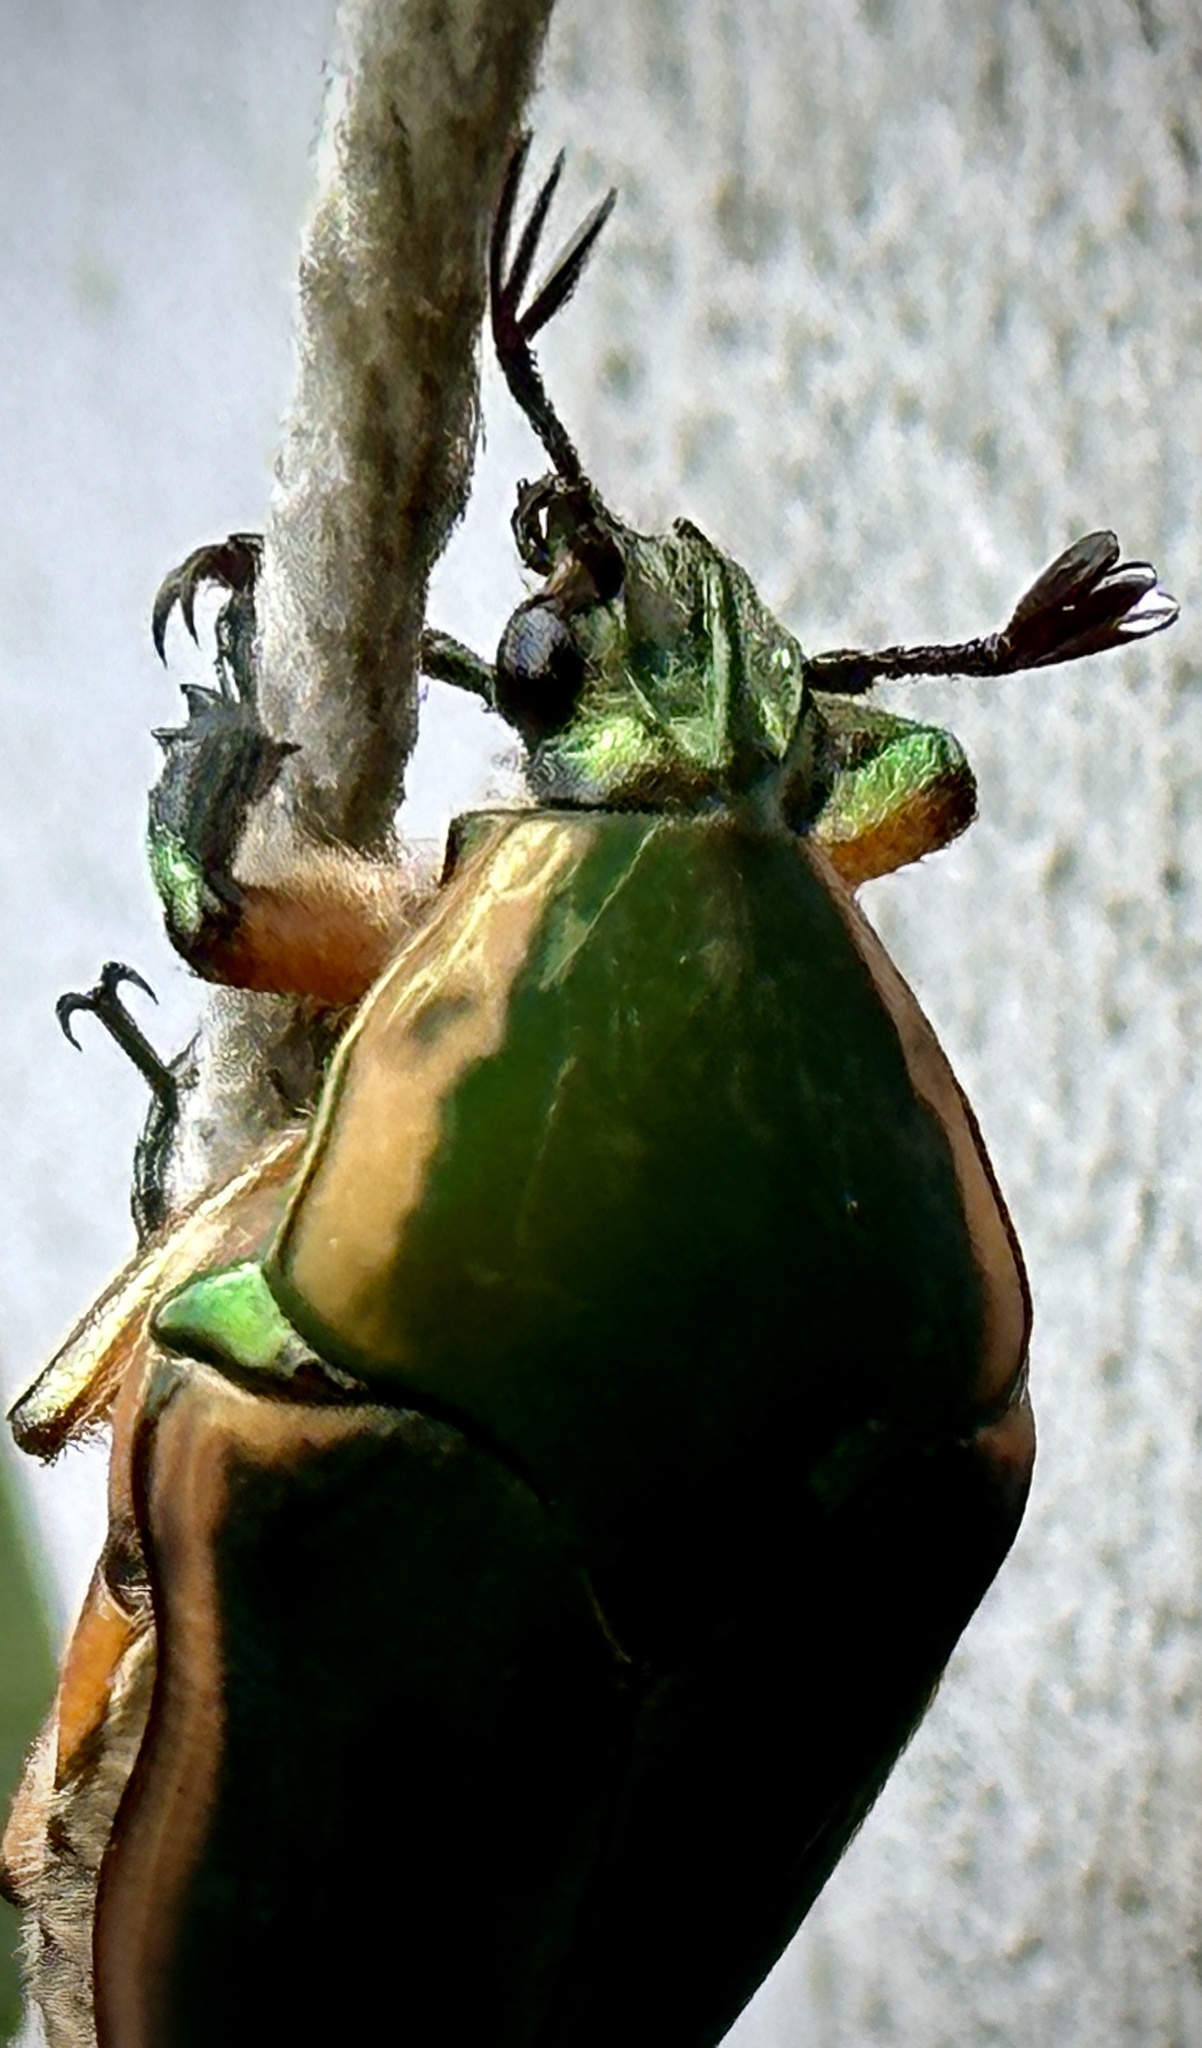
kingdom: Animalia
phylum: Arthropoda
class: Insecta
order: Coleoptera
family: Scarabaeidae
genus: Cotinis
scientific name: Cotinis nitida
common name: Common green june beetle
